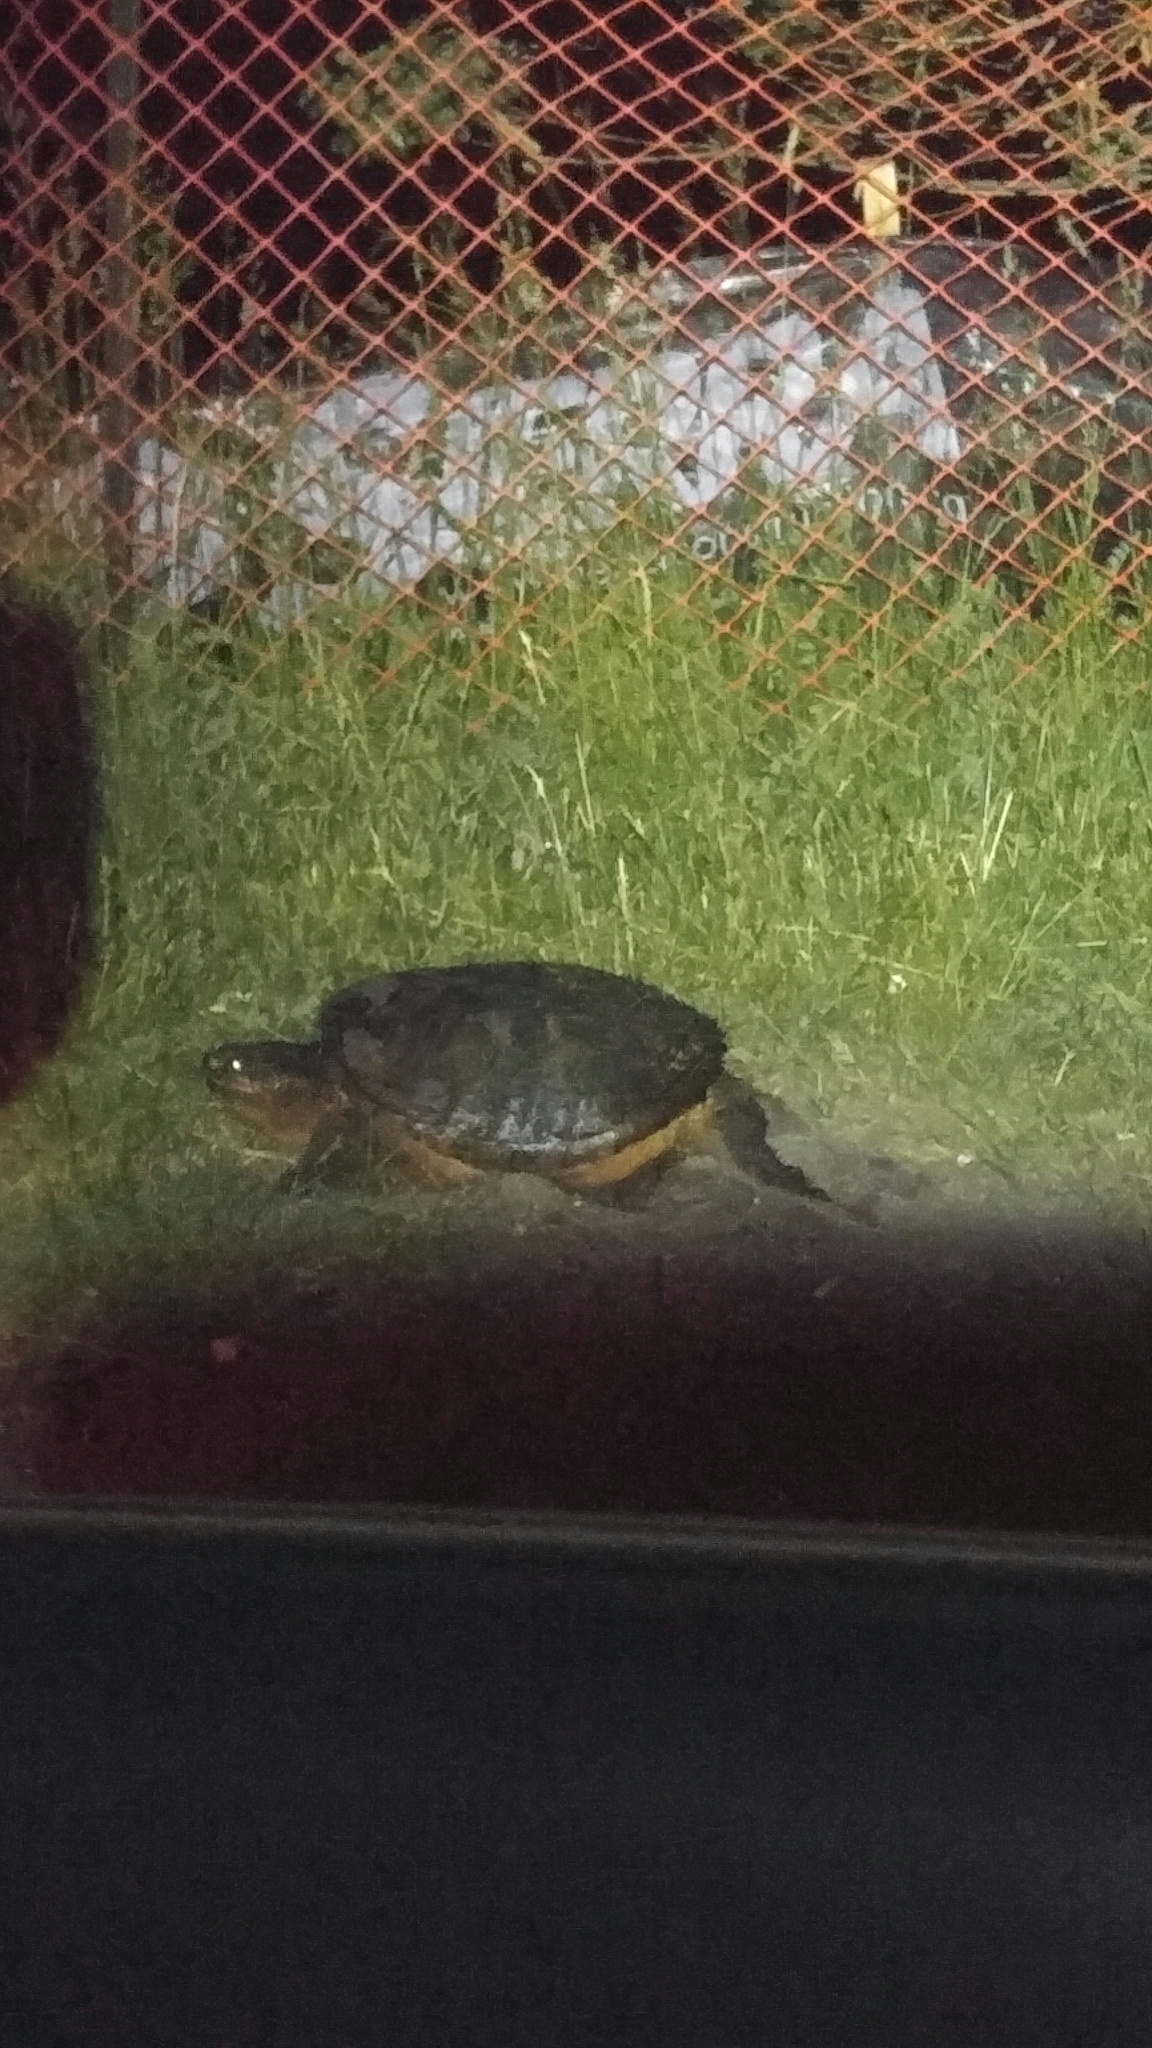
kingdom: Animalia
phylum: Chordata
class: Testudines
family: Chelydridae
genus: Chelydra
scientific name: Chelydra serpentina
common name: Common snapping turtle
